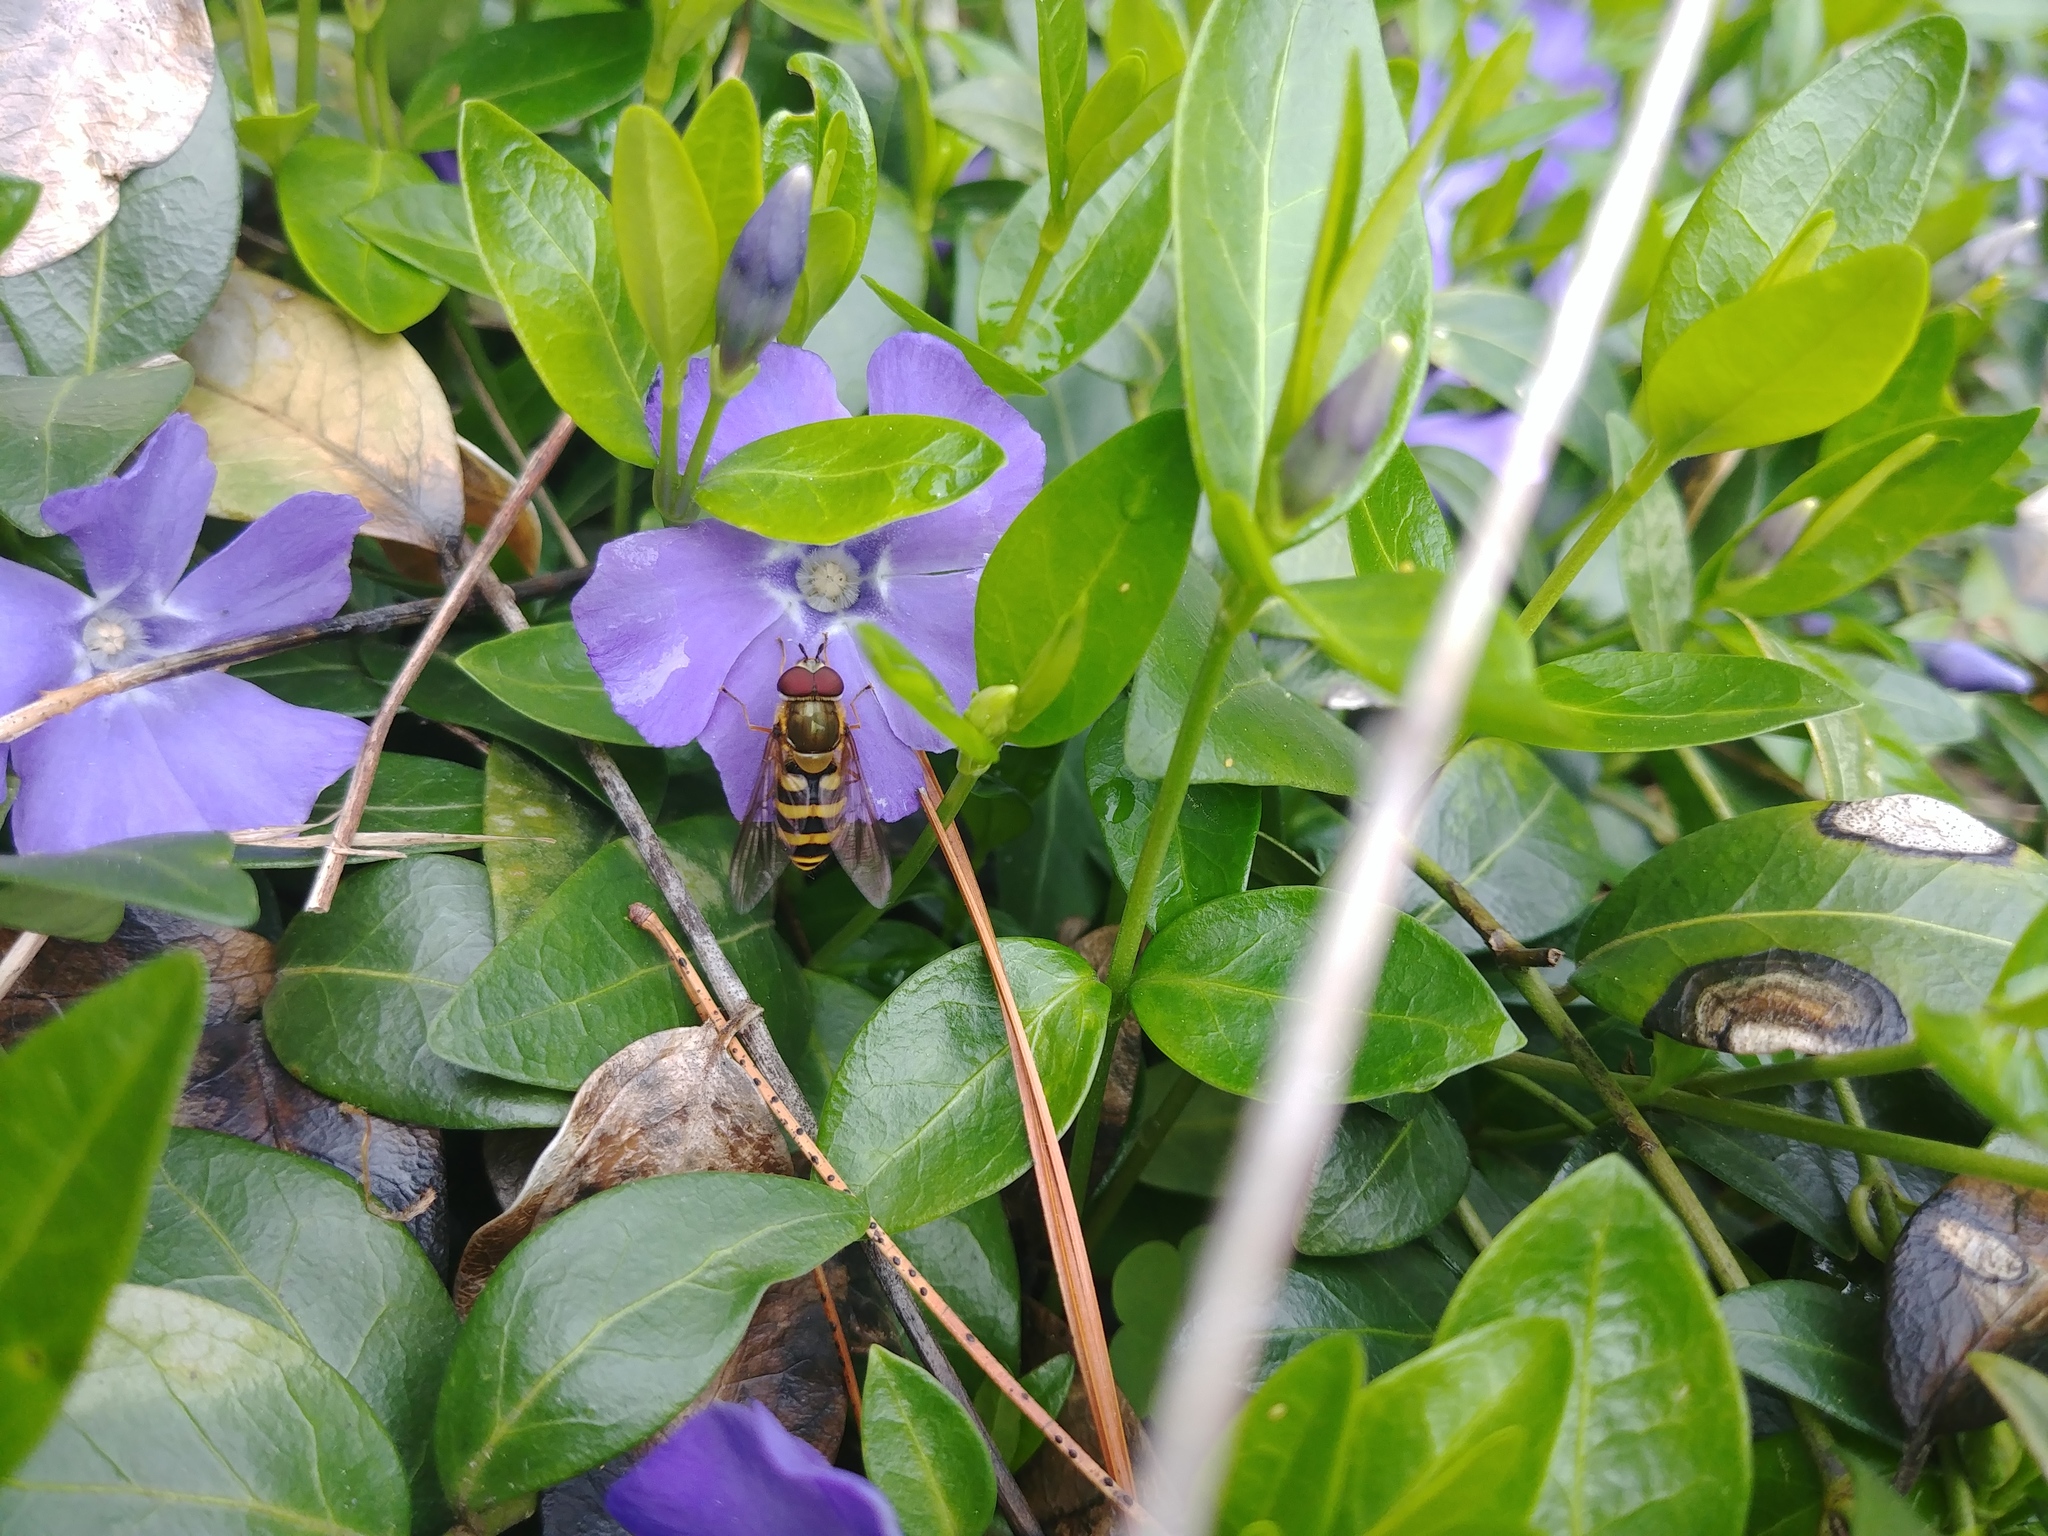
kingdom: Animalia
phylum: Arthropoda
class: Insecta
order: Diptera
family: Syrphidae
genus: Syrphus
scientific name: Syrphus
